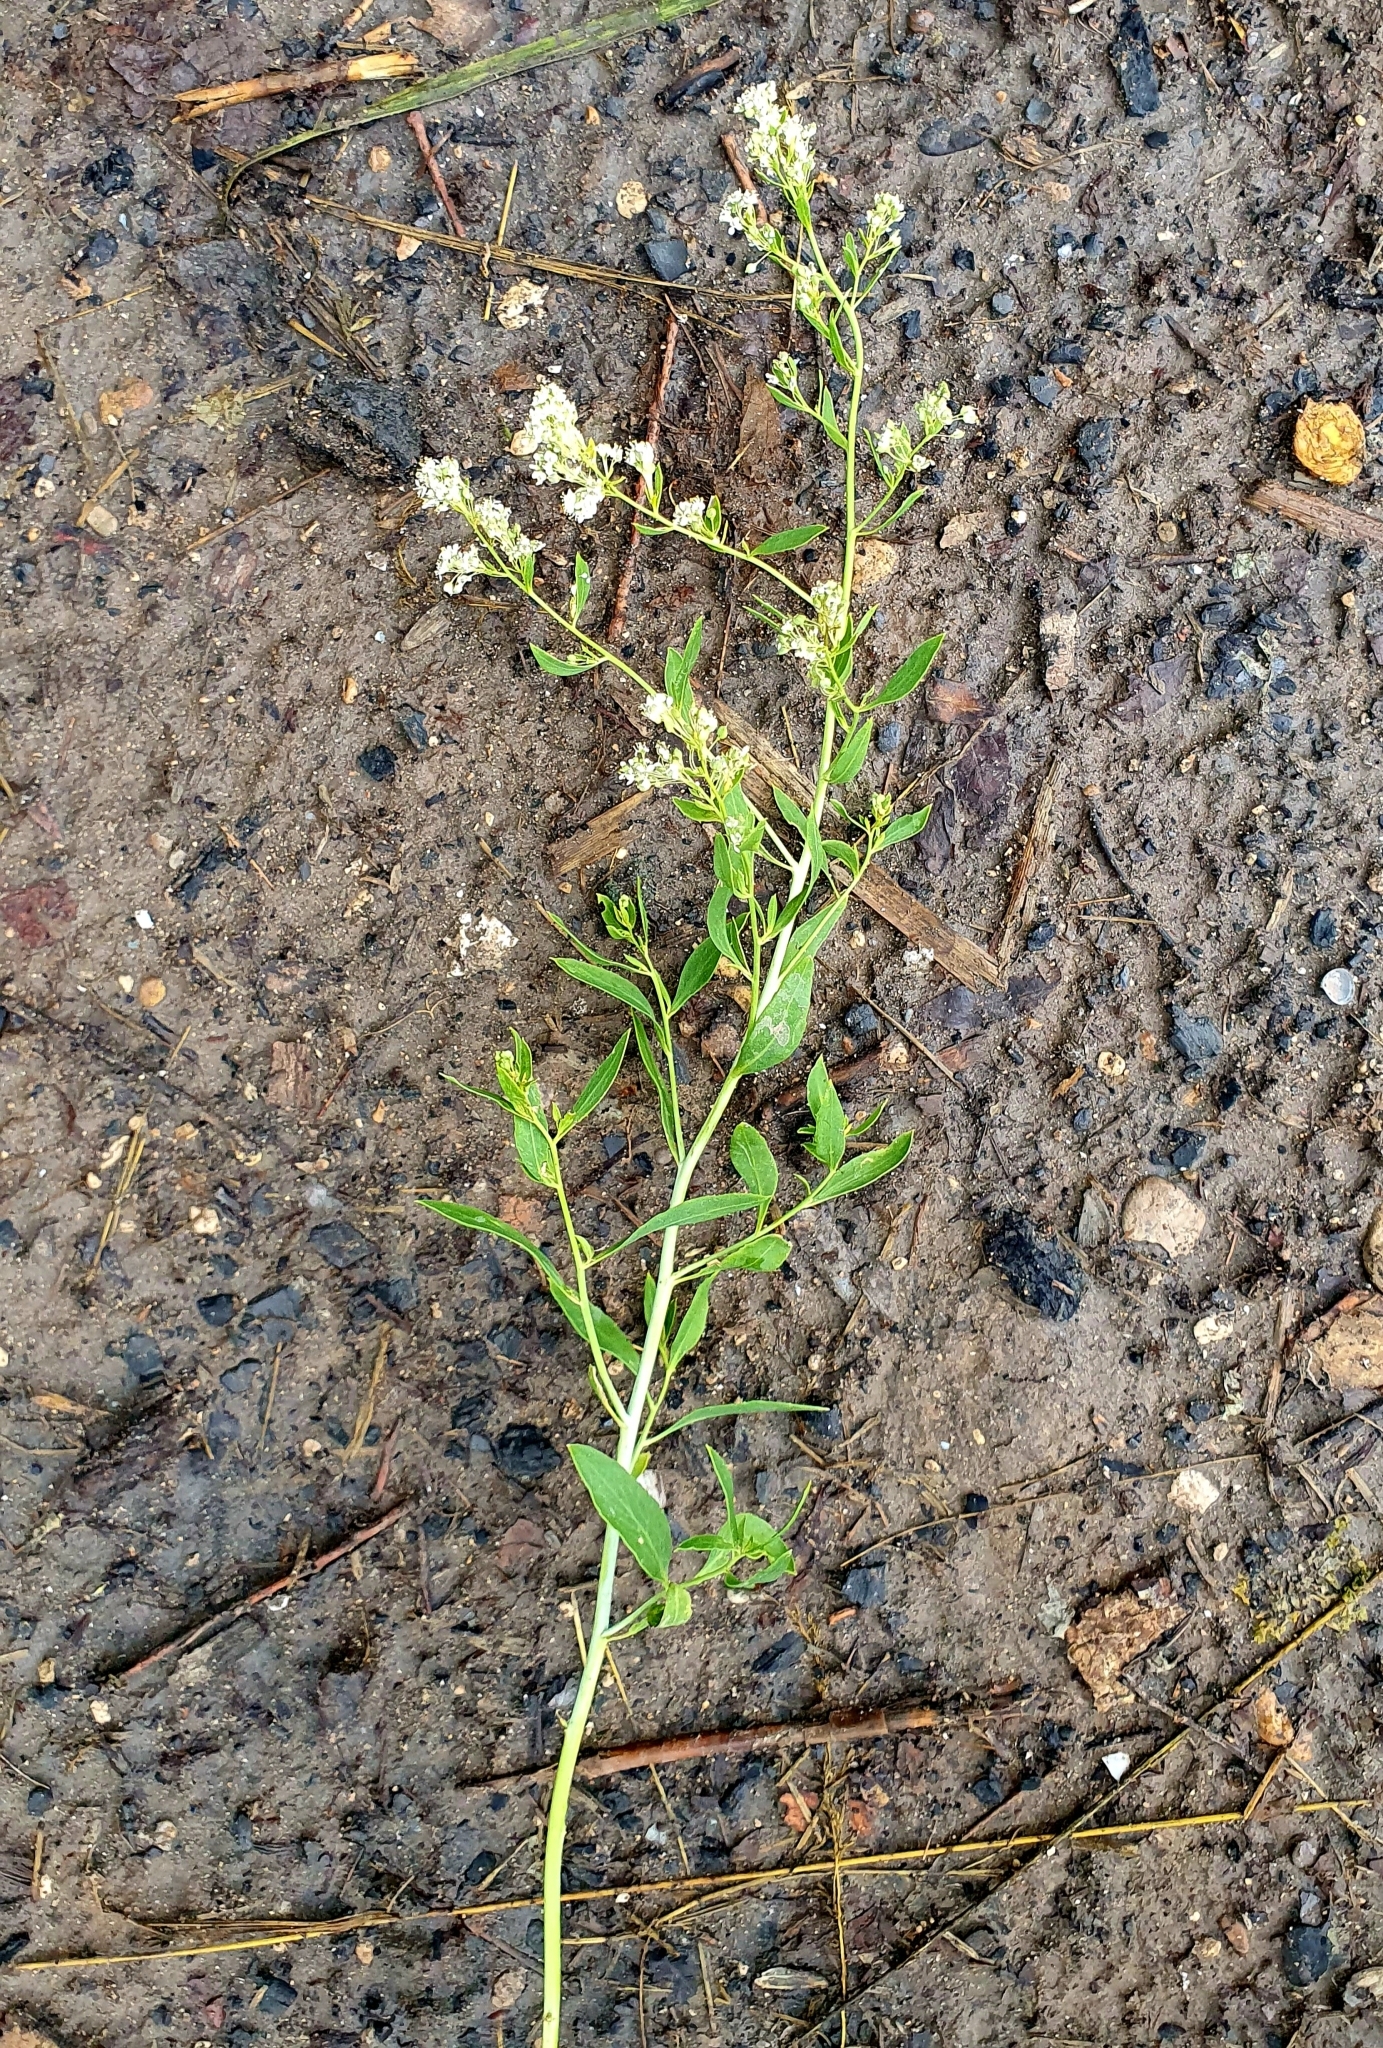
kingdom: Plantae
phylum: Tracheophyta
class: Magnoliopsida
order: Brassicales
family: Brassicaceae
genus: Lepidium
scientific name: Lepidium latifolium
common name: Dittander
